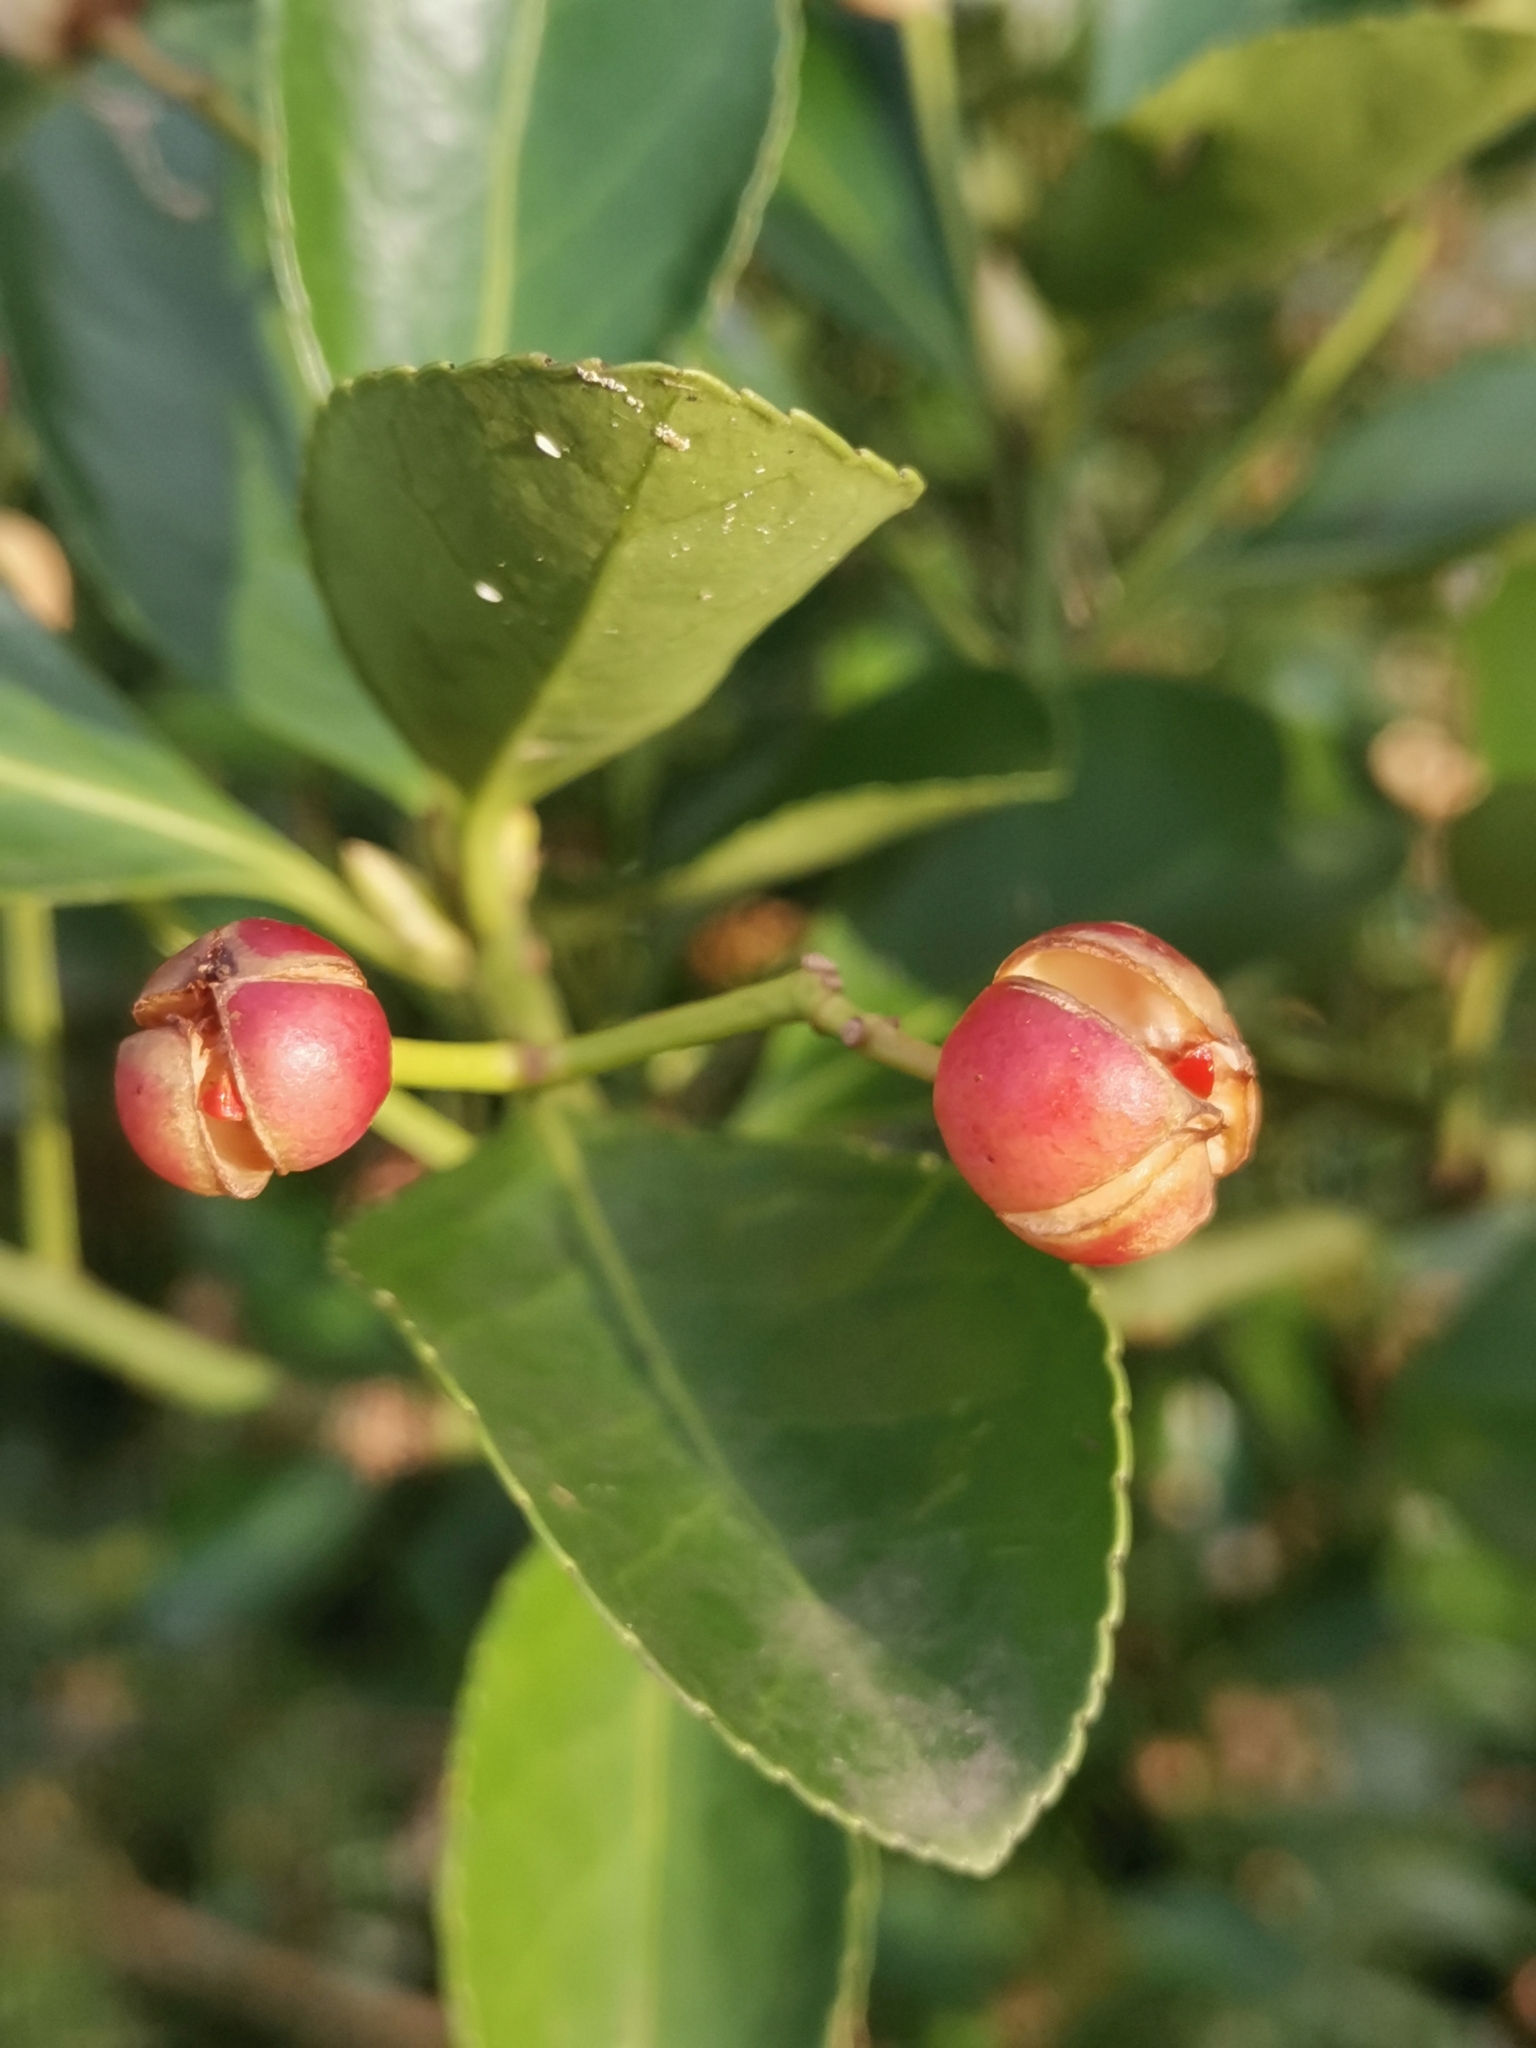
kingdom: Plantae
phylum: Tracheophyta
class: Magnoliopsida
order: Celastrales
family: Celastraceae
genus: Euonymus
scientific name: Euonymus japonicus
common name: Japanese spindletree
